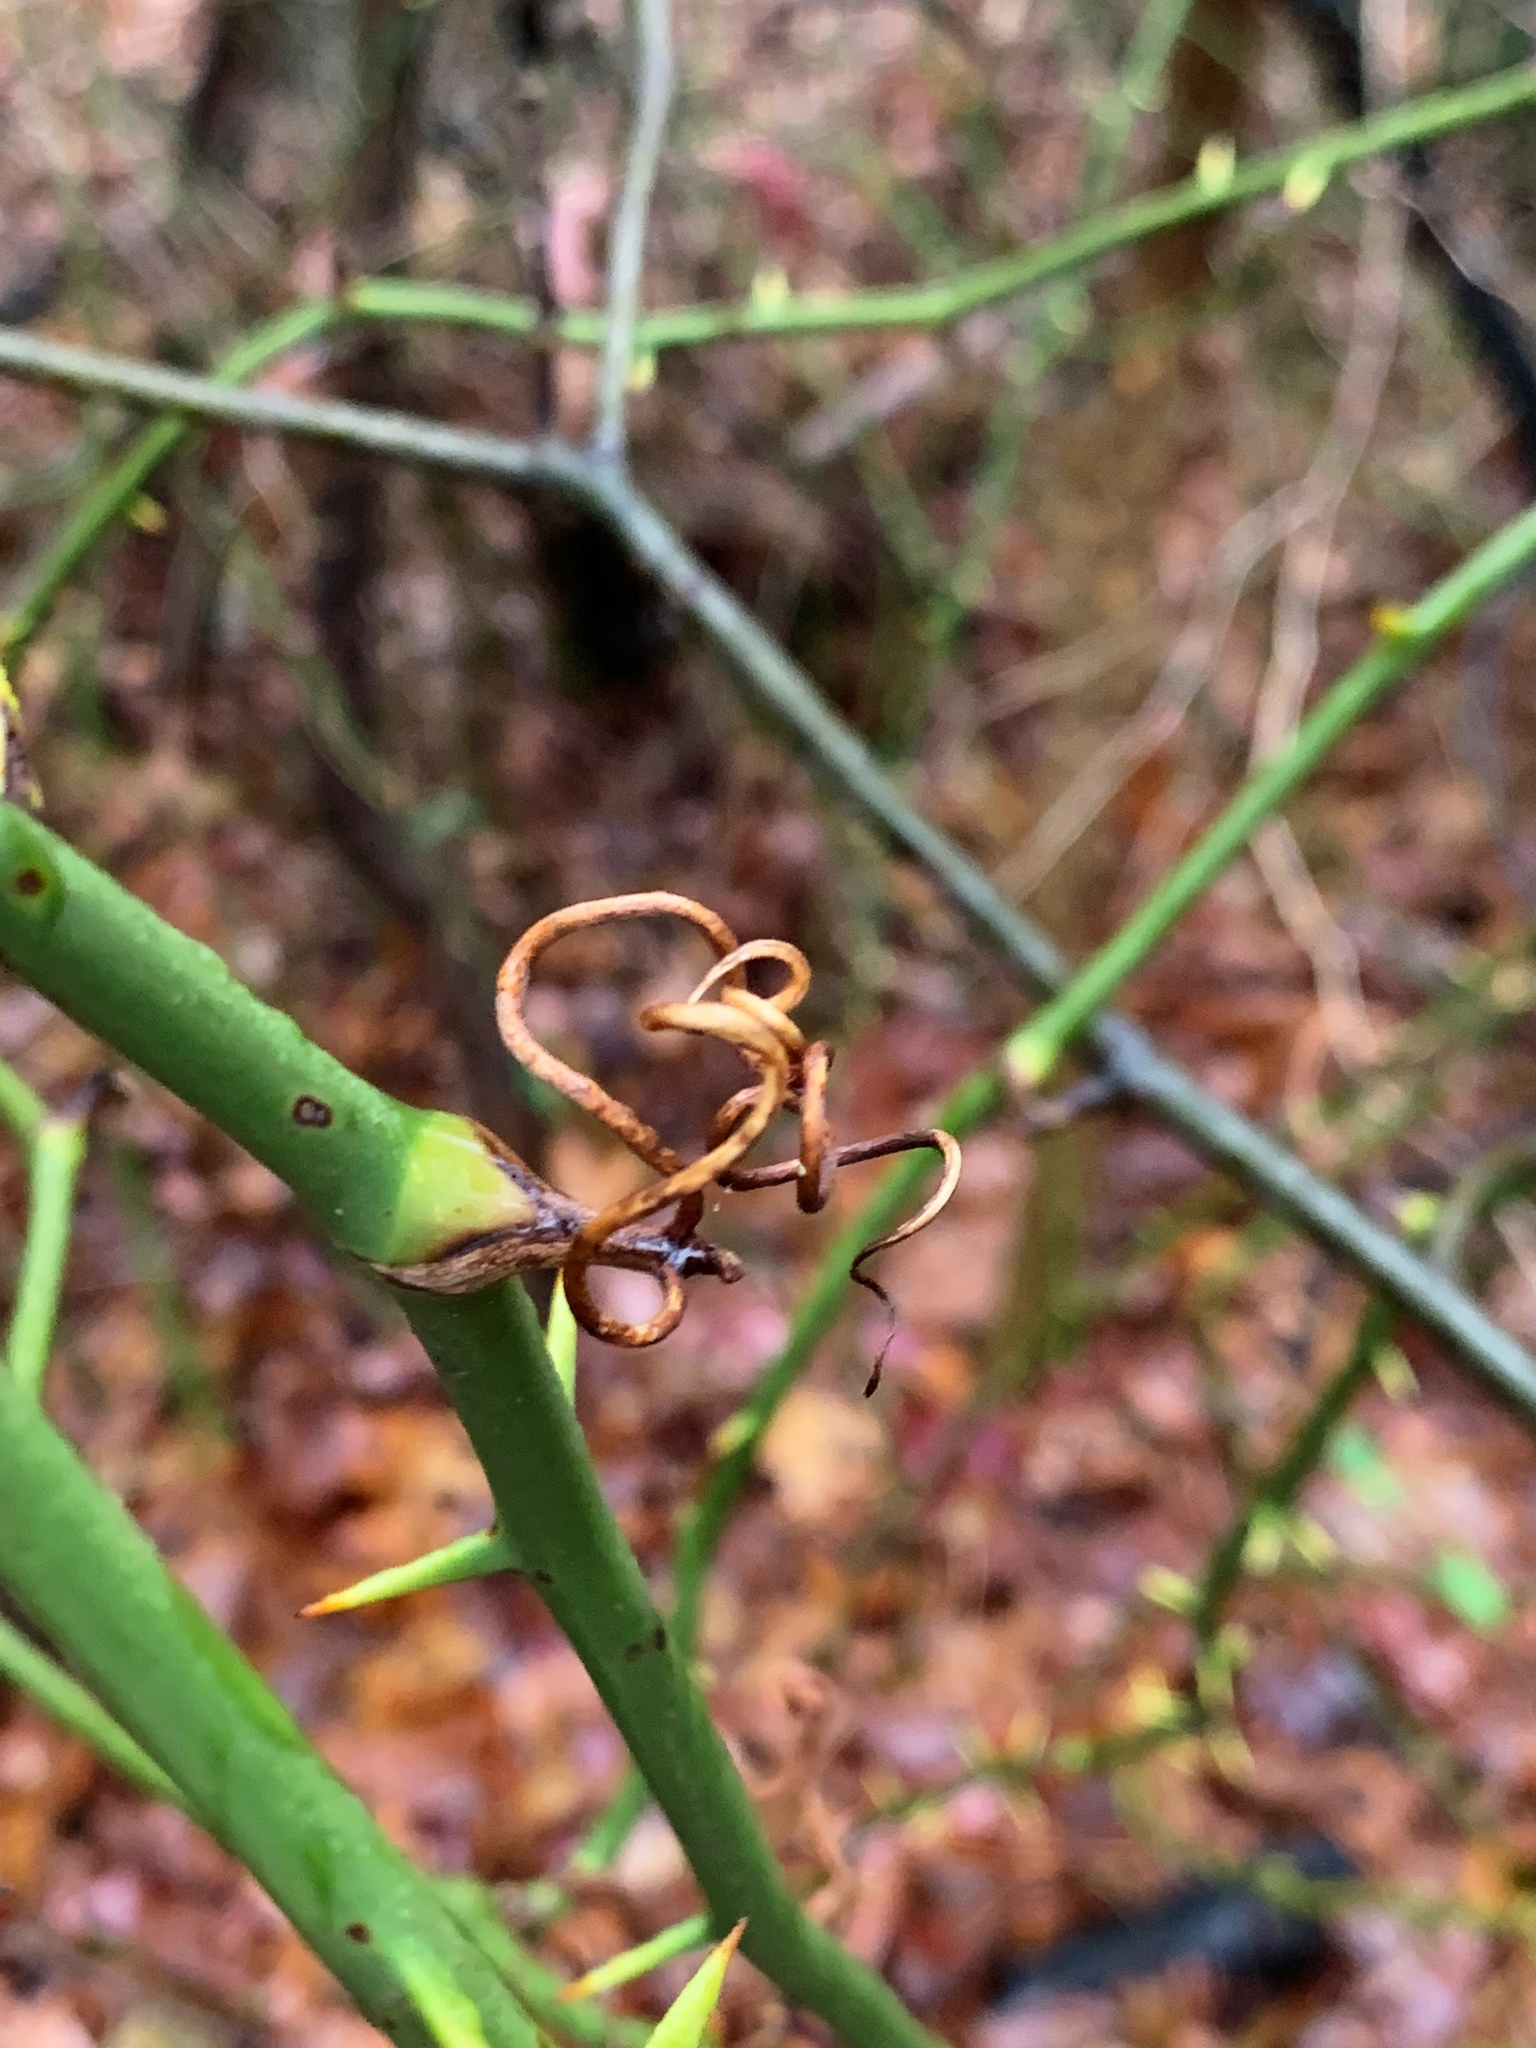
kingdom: Plantae
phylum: Tracheophyta
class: Liliopsida
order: Liliales
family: Smilacaceae
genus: Smilax
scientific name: Smilax rotundifolia
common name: Bullbriar
